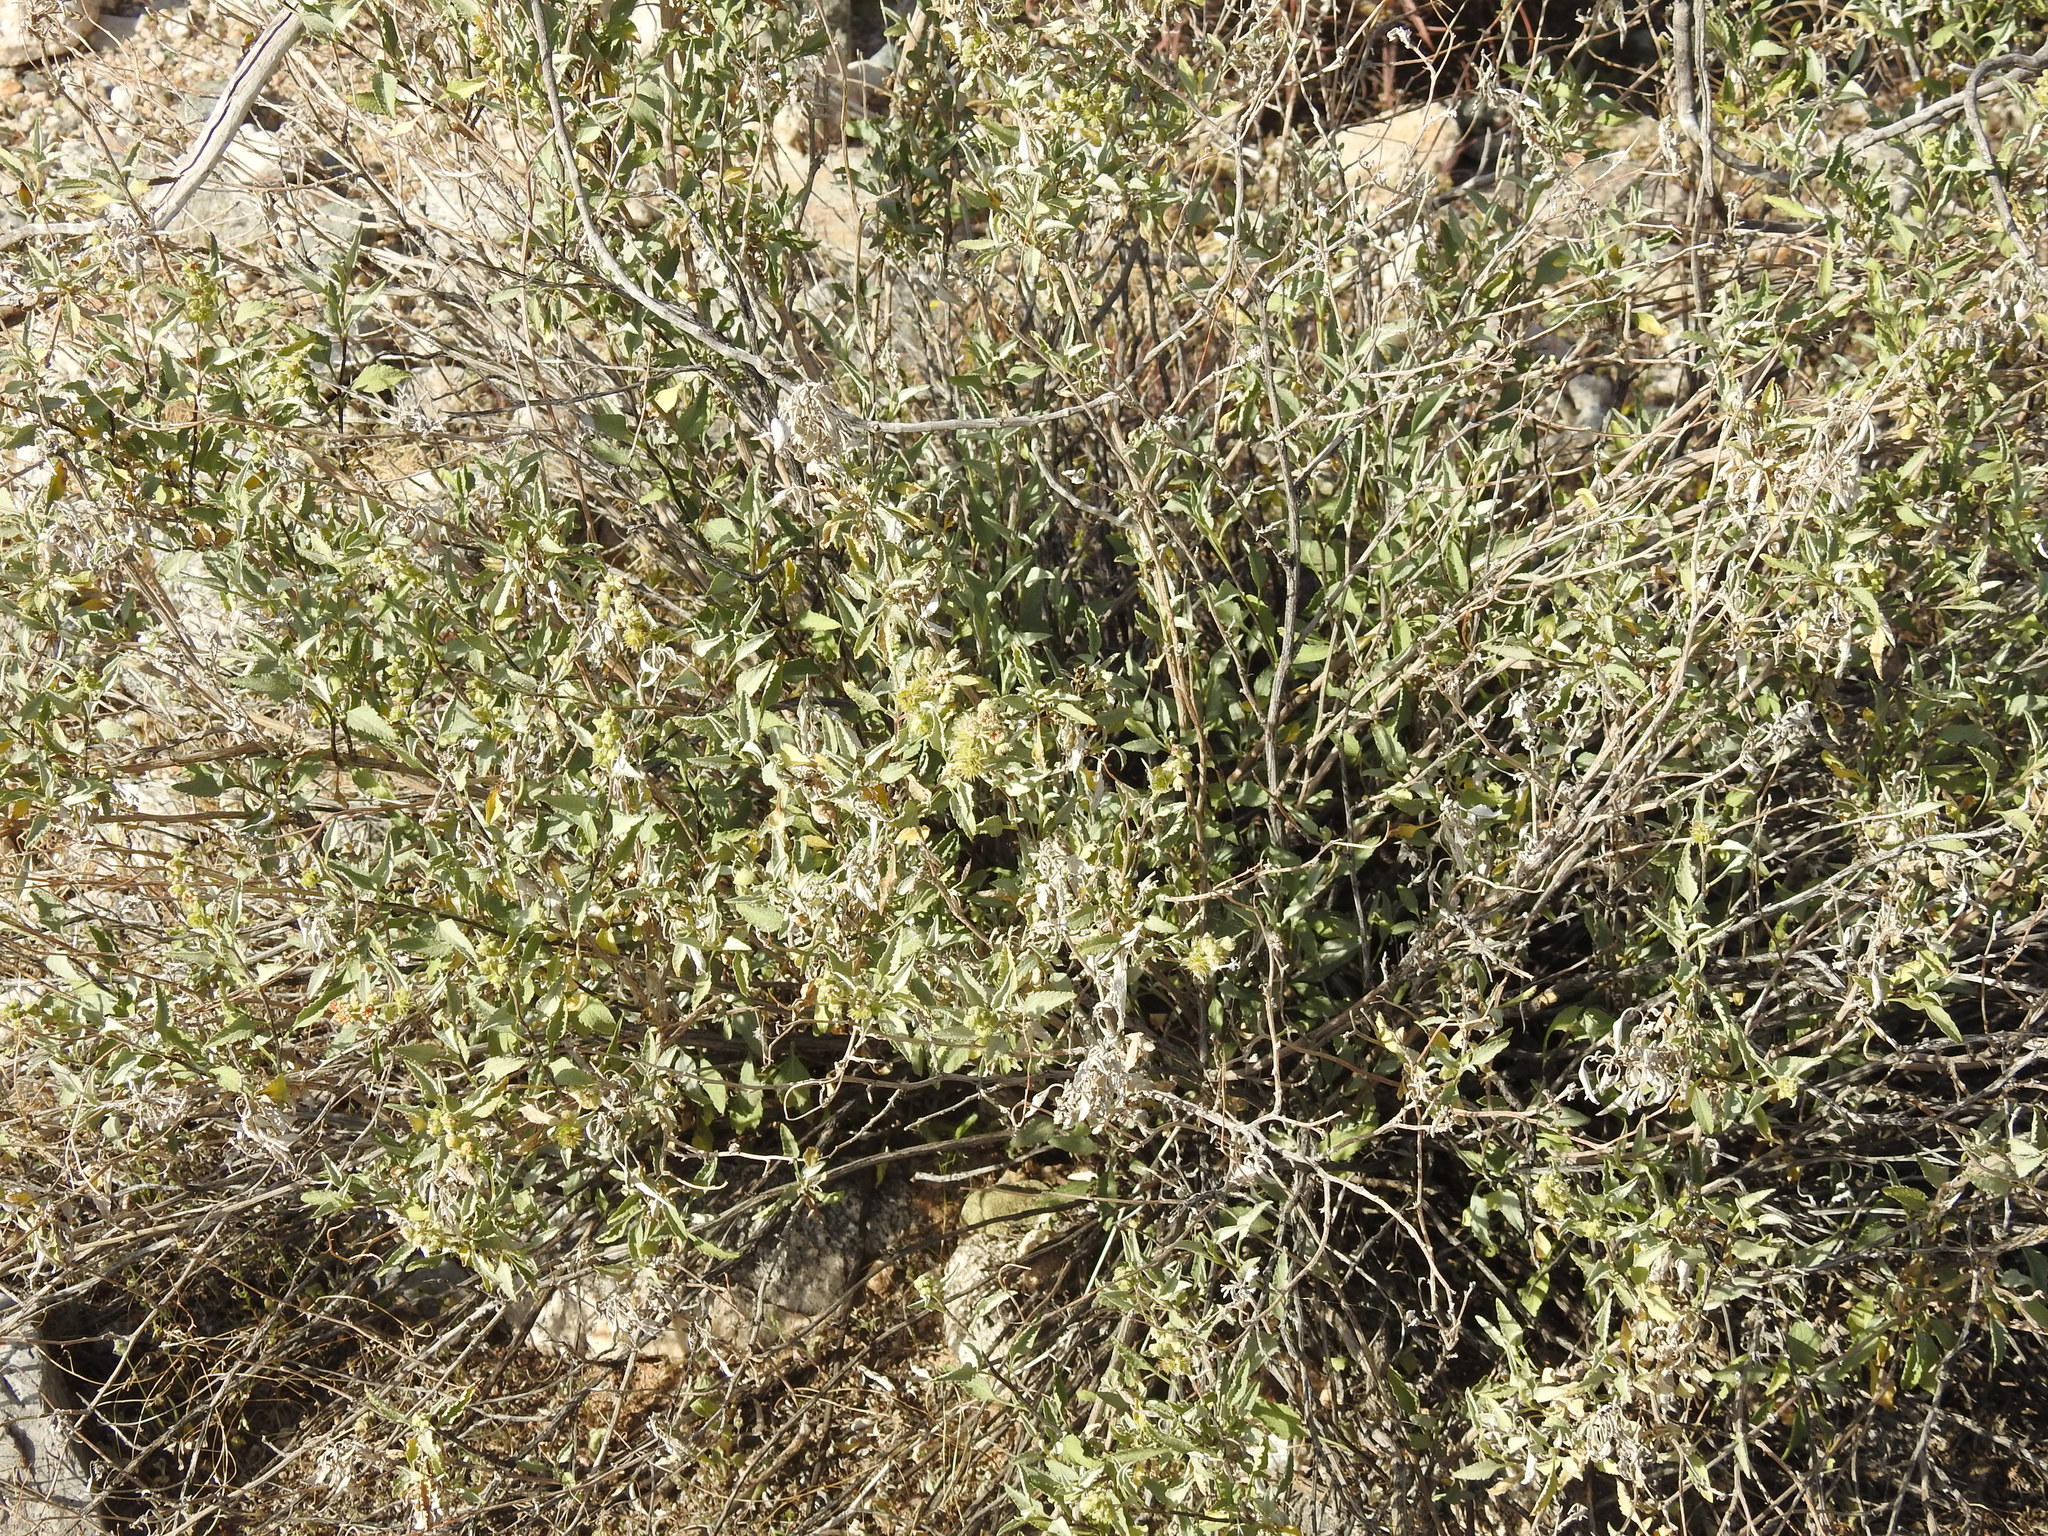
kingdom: Plantae
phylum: Tracheophyta
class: Magnoliopsida
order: Asterales
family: Asteraceae
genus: Ambrosia
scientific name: Ambrosia deltoidea
